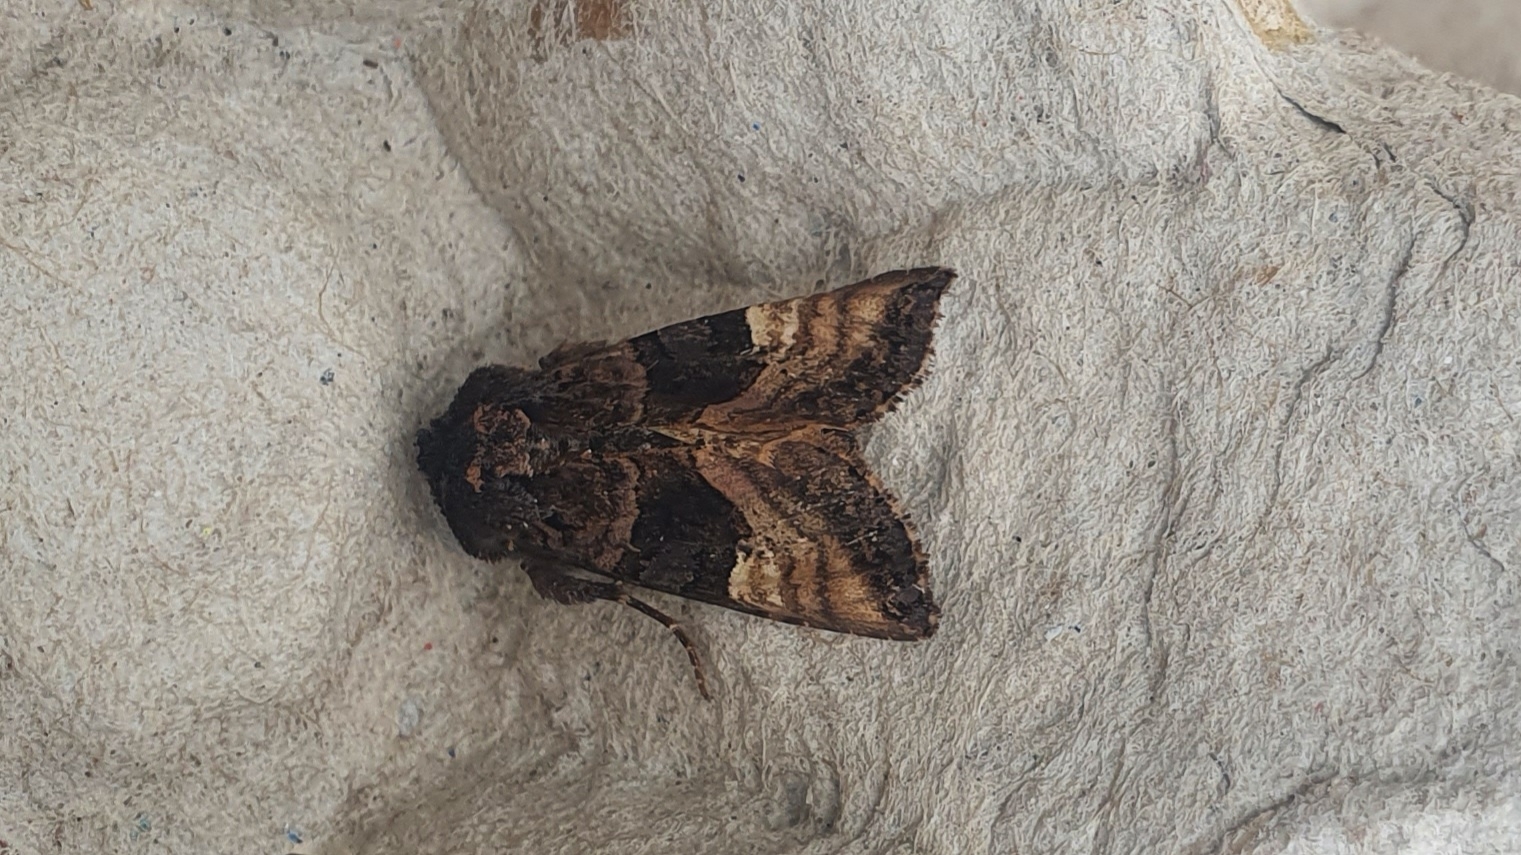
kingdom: Animalia
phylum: Arthropoda
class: Insecta
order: Lepidoptera
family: Noctuidae
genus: Euplexia
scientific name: Euplexia lucipara
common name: Small angle shades
